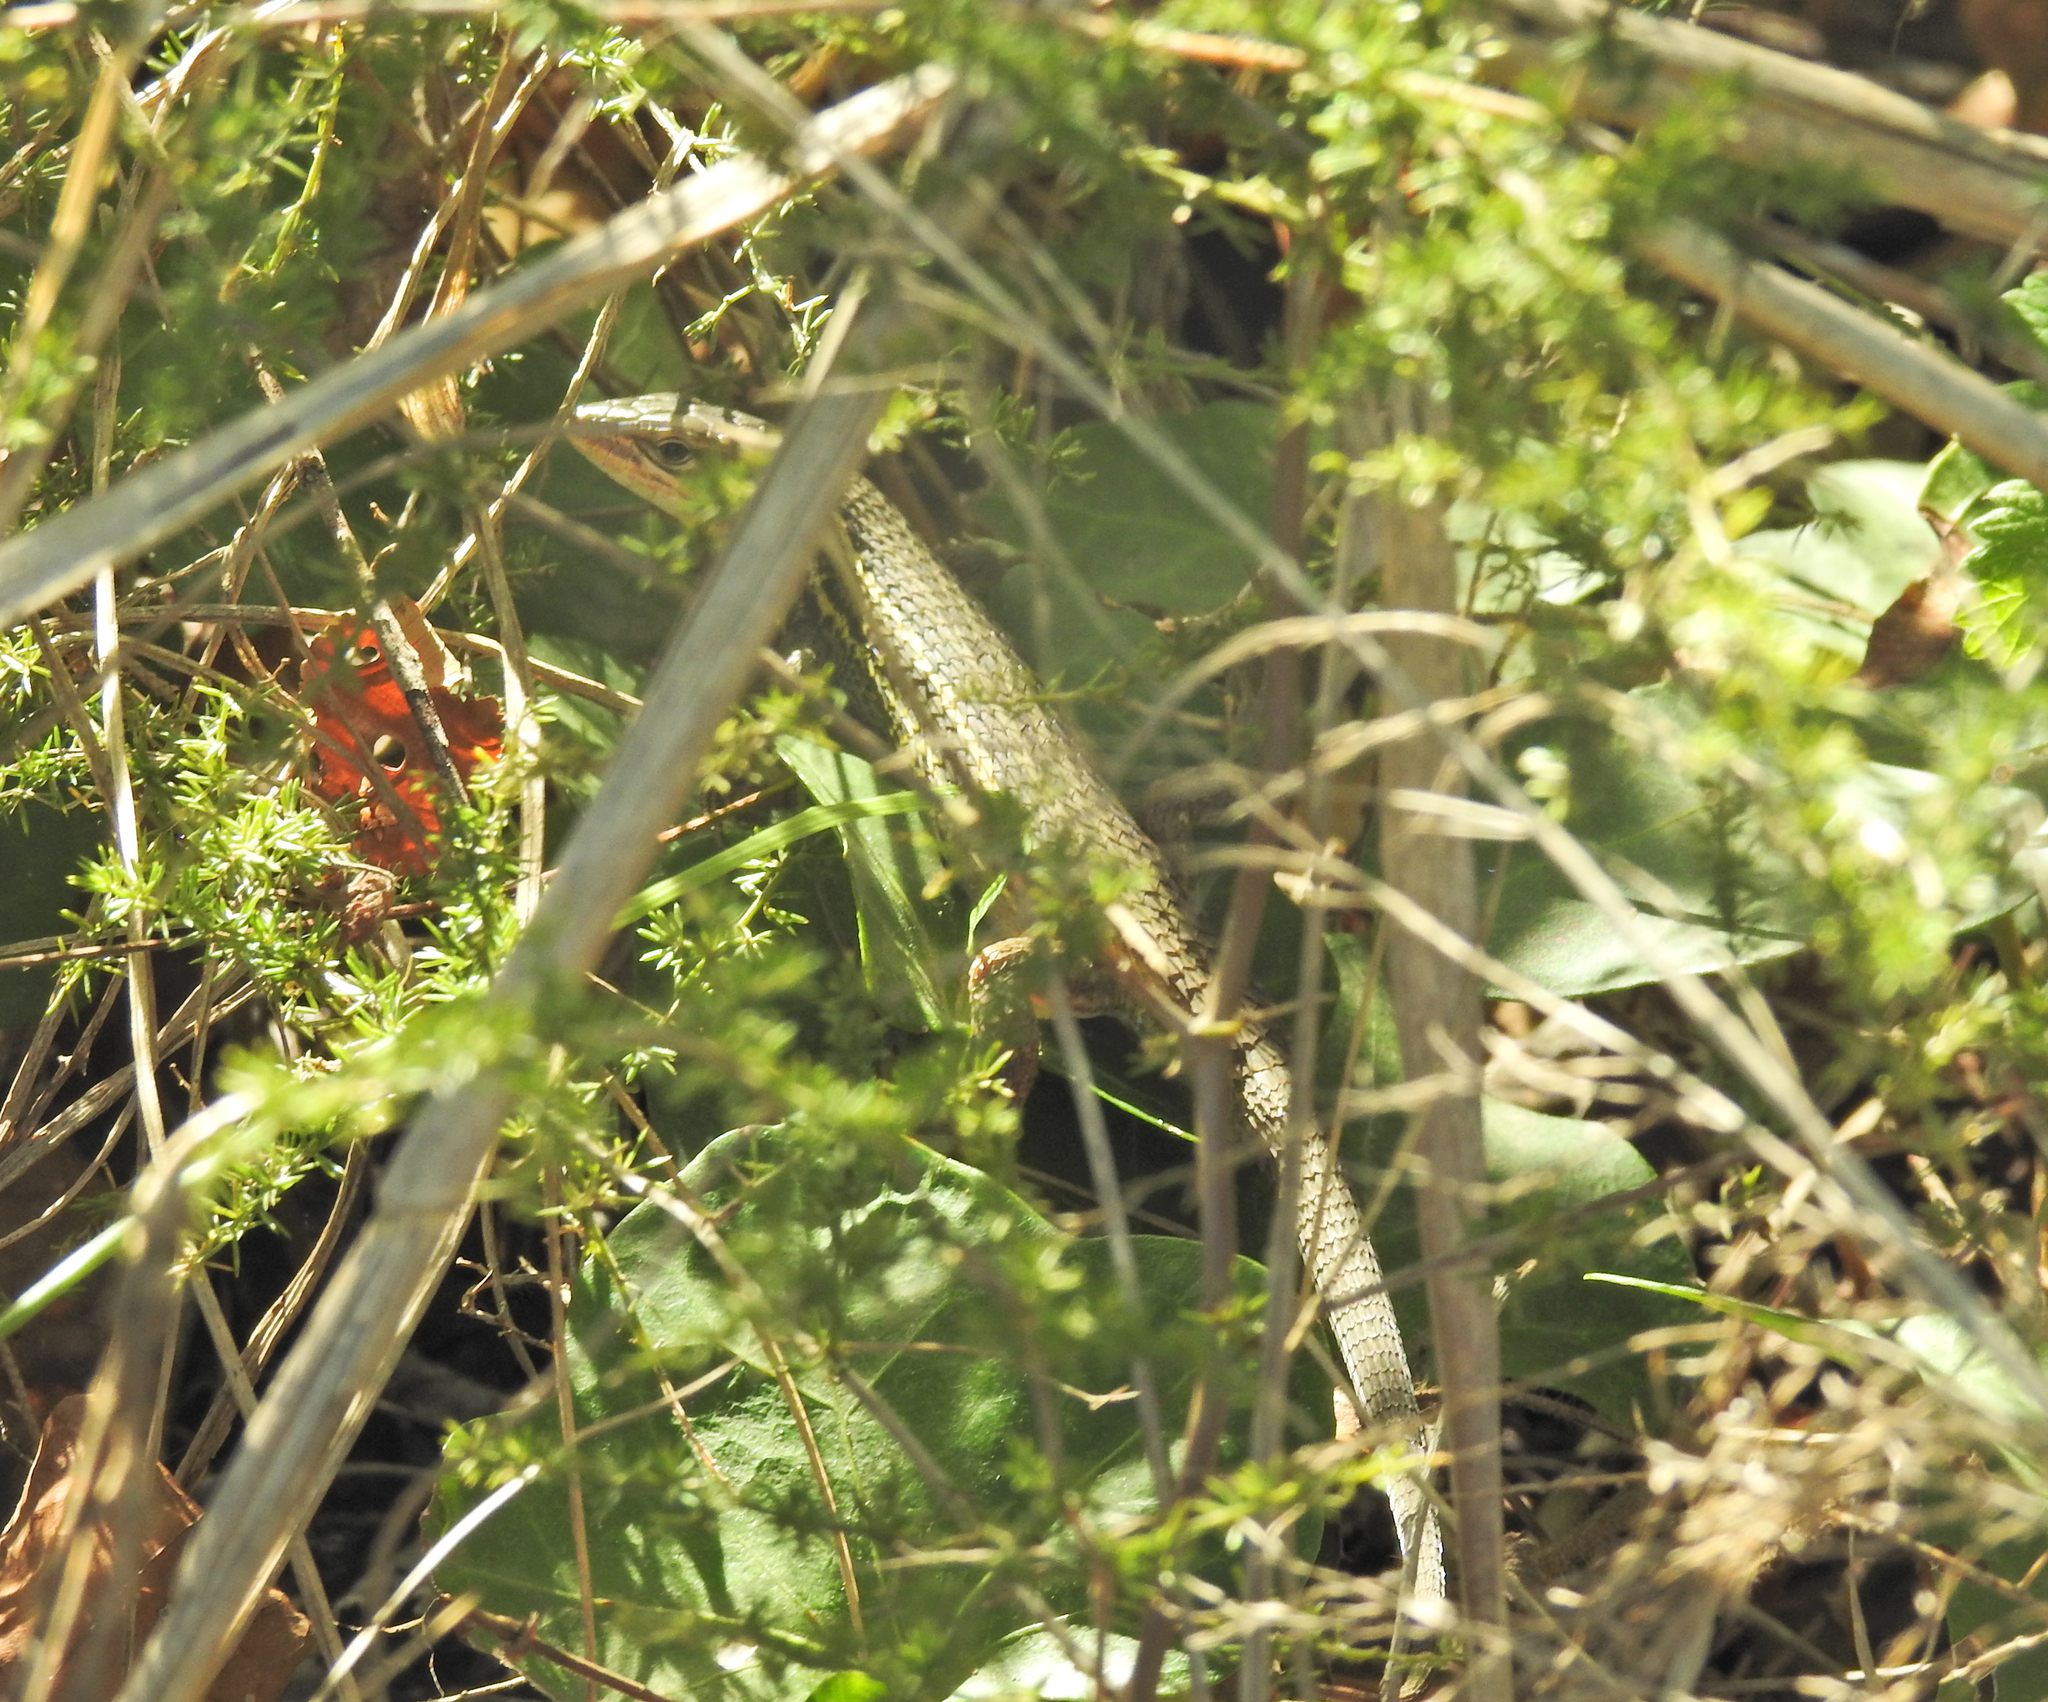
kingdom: Animalia
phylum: Chordata
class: Squamata
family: Lacertidae
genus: Psammodromus
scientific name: Psammodromus algirus
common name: Algerian psammodromus
